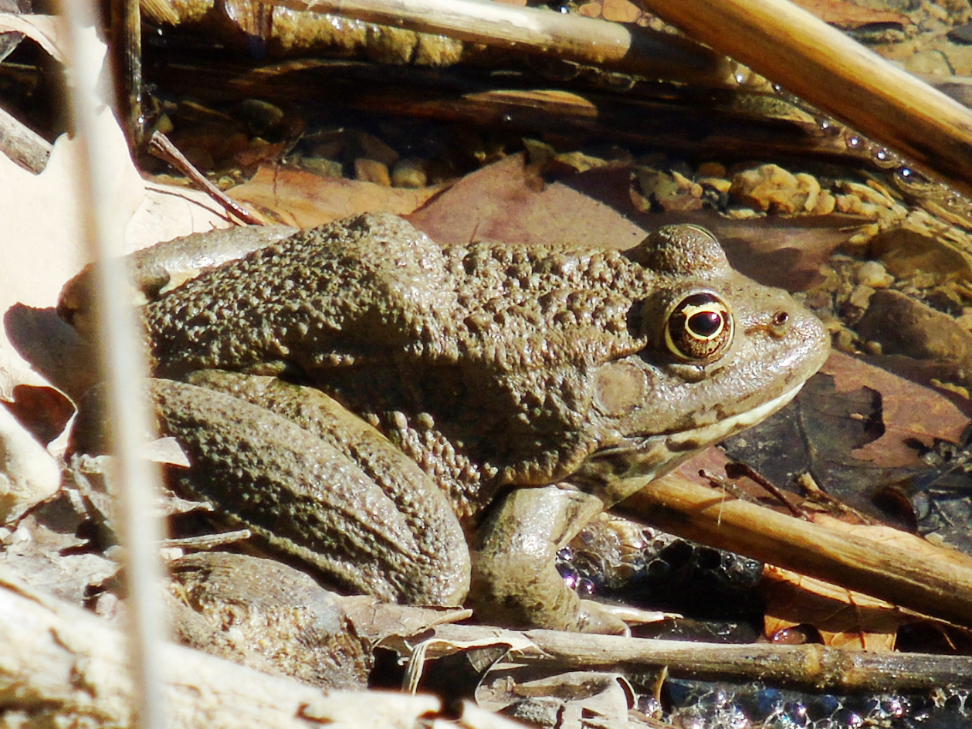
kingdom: Animalia
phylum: Chordata
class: Amphibia
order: Anura
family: Ranidae
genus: Pelophylax
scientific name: Pelophylax ridibundus
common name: Marsh frog
